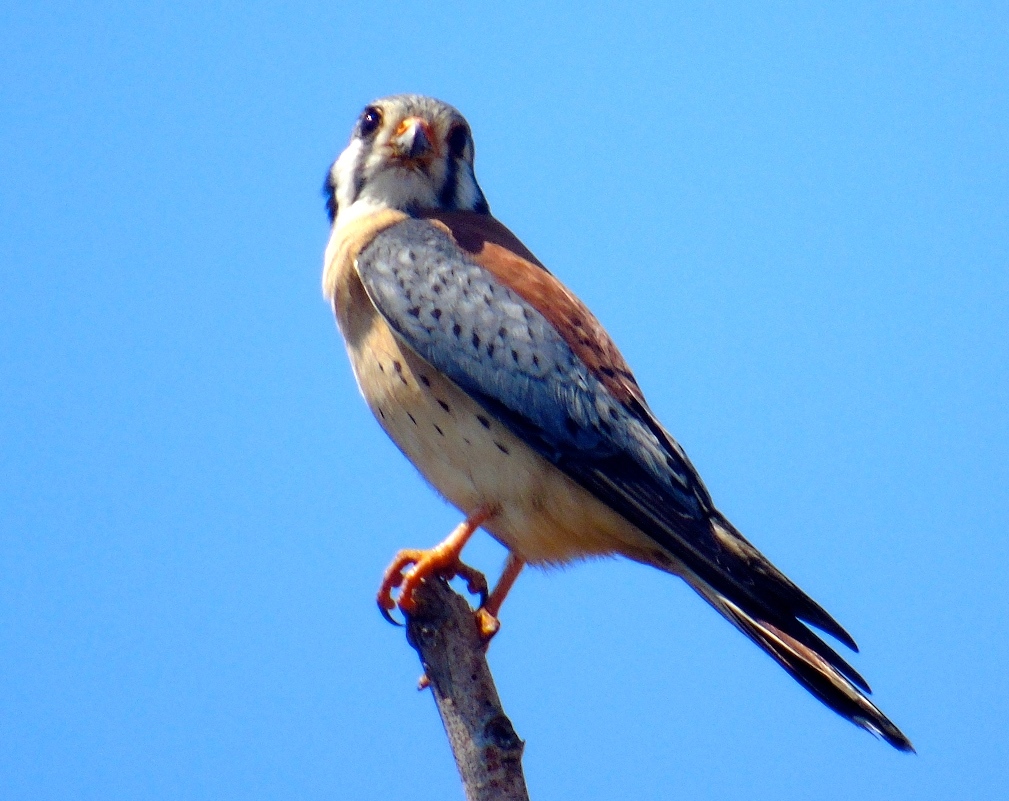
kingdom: Animalia
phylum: Chordata
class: Aves
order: Falconiformes
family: Falconidae
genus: Falco
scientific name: Falco sparverius
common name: American kestrel
